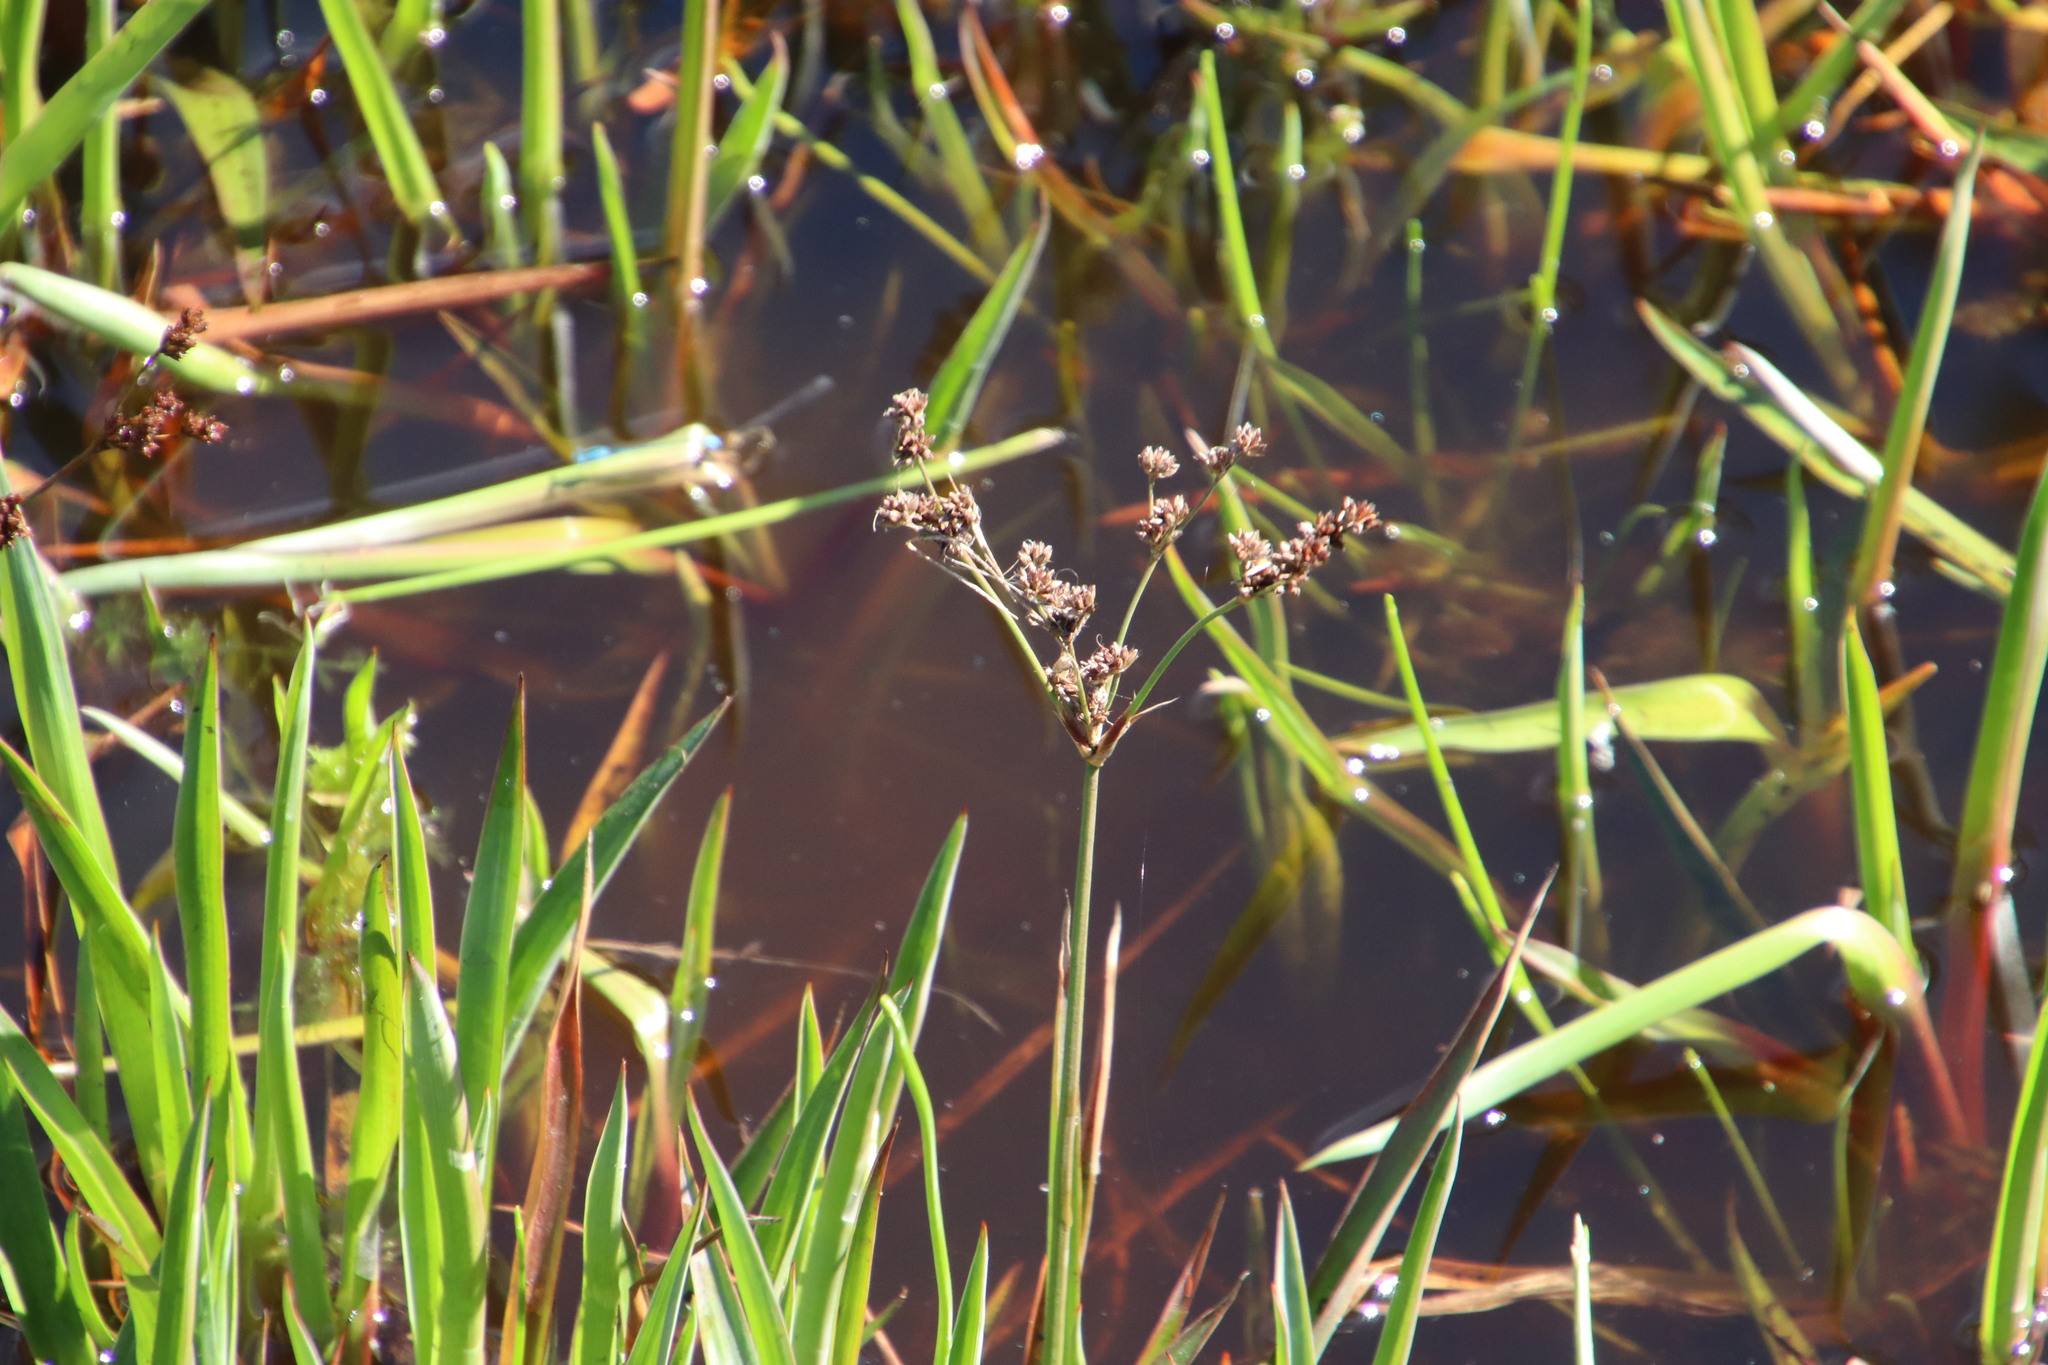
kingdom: Plantae
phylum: Tracheophyta
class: Liliopsida
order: Poales
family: Juncaceae
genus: Juncus
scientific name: Juncus lomatophyllus
